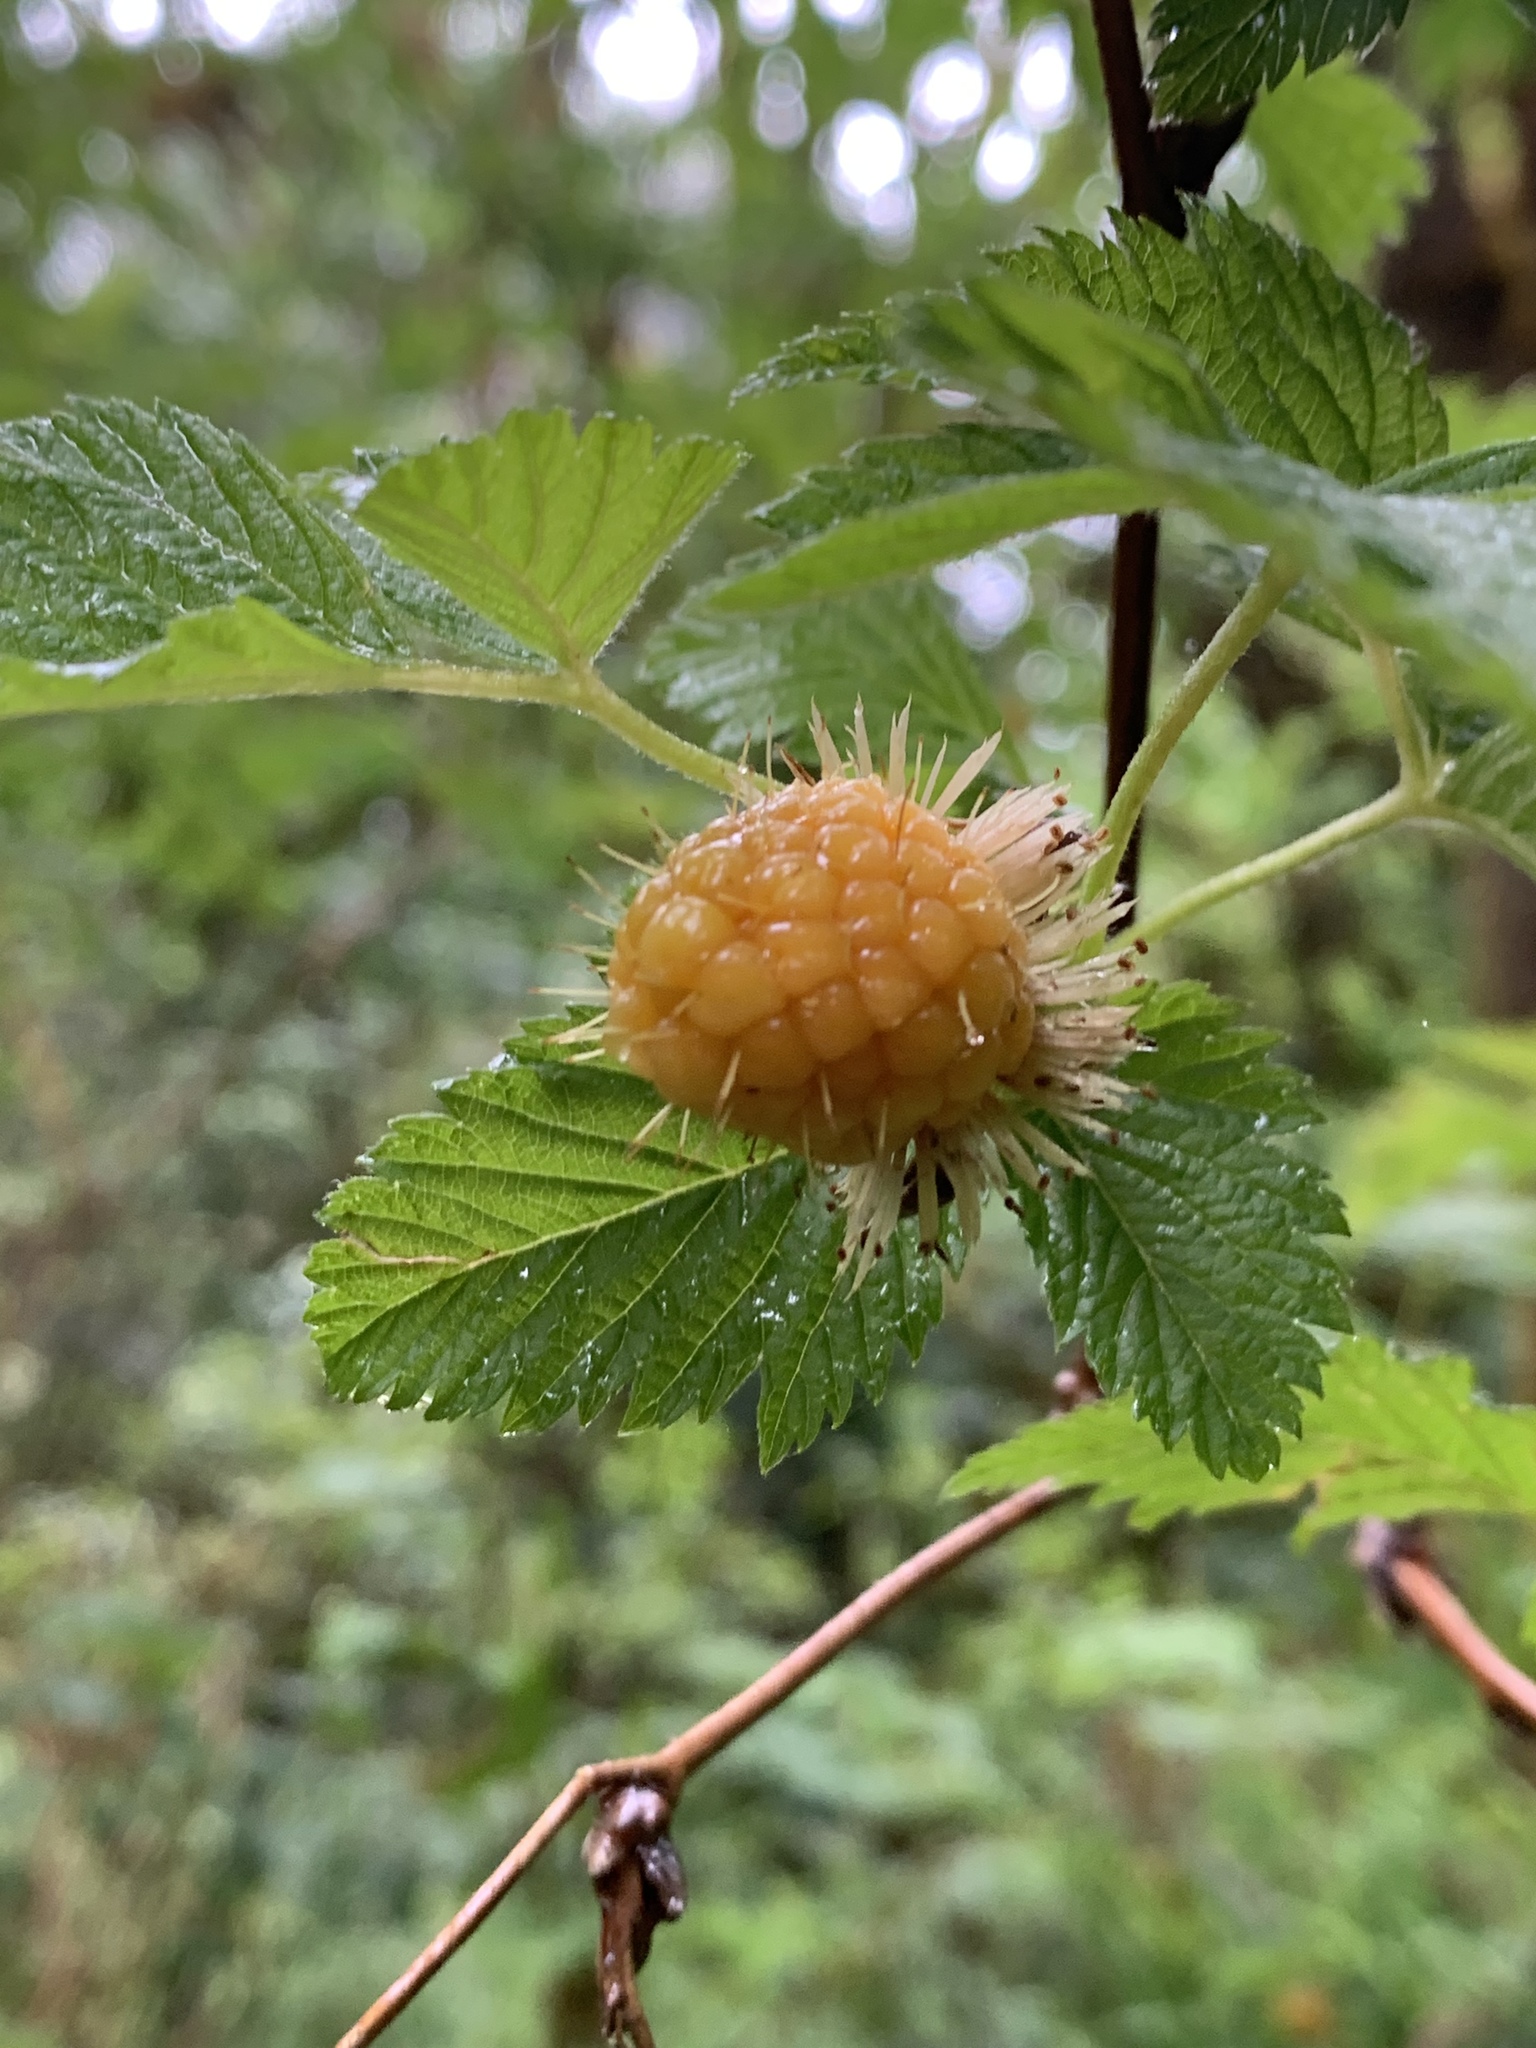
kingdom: Plantae
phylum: Tracheophyta
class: Magnoliopsida
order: Rosales
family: Rosaceae
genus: Rubus
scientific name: Rubus spectabilis
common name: Salmonberry
